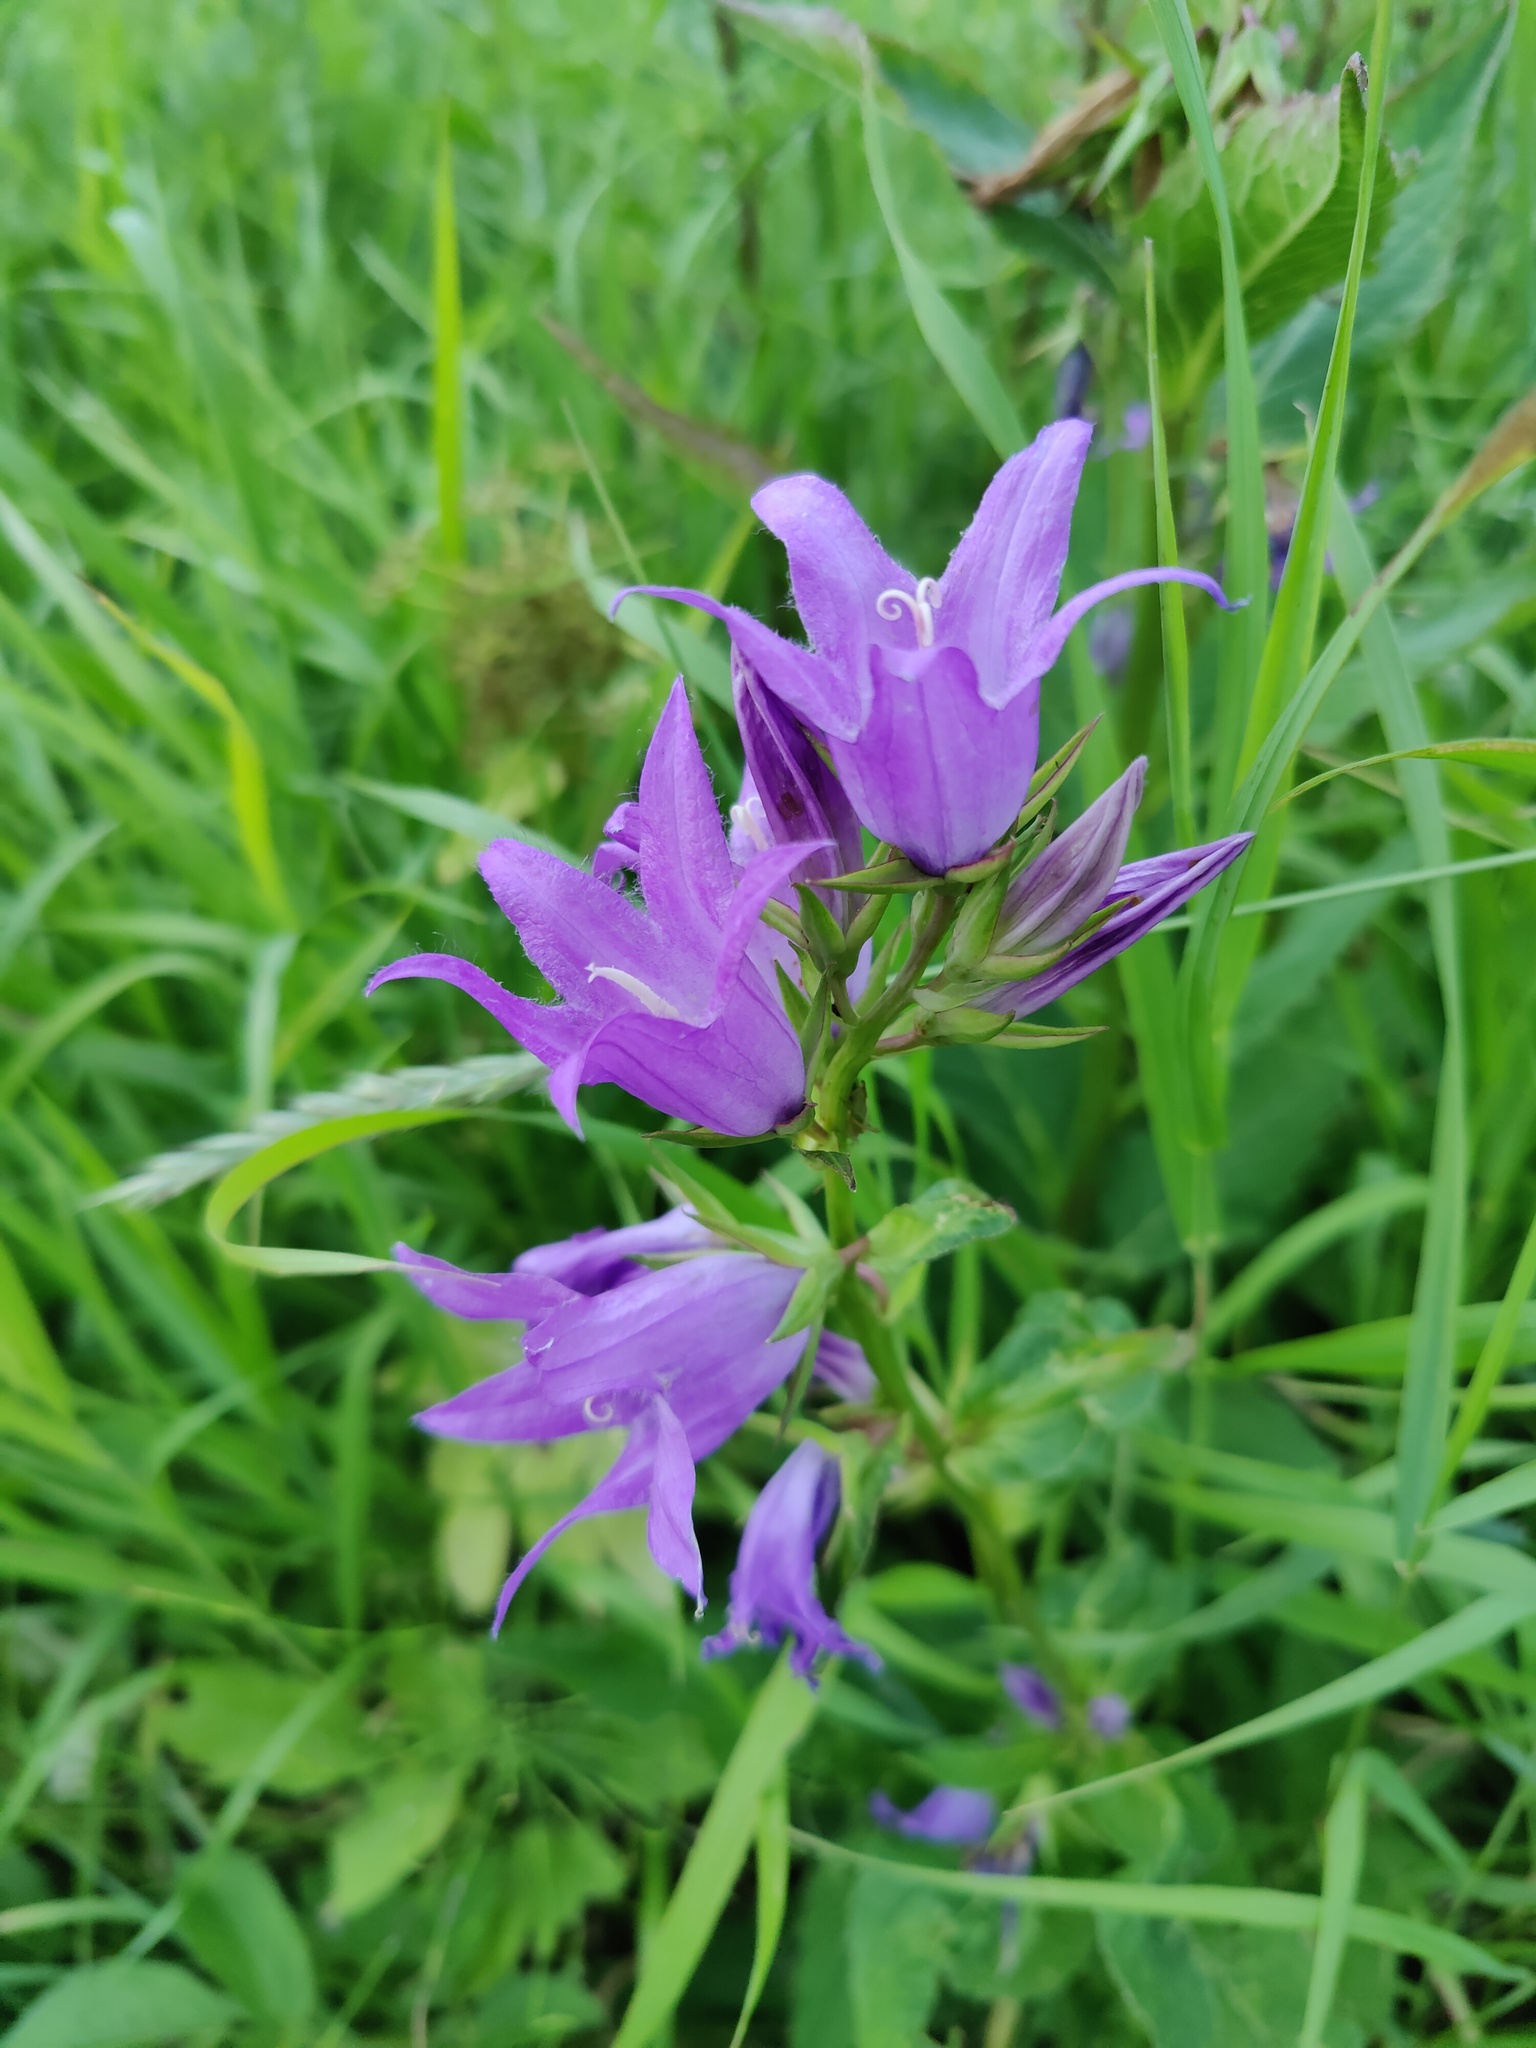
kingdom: Plantae
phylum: Tracheophyta
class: Magnoliopsida
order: Asterales
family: Campanulaceae
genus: Campanula
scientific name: Campanula latifolia
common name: Giant bellflower
